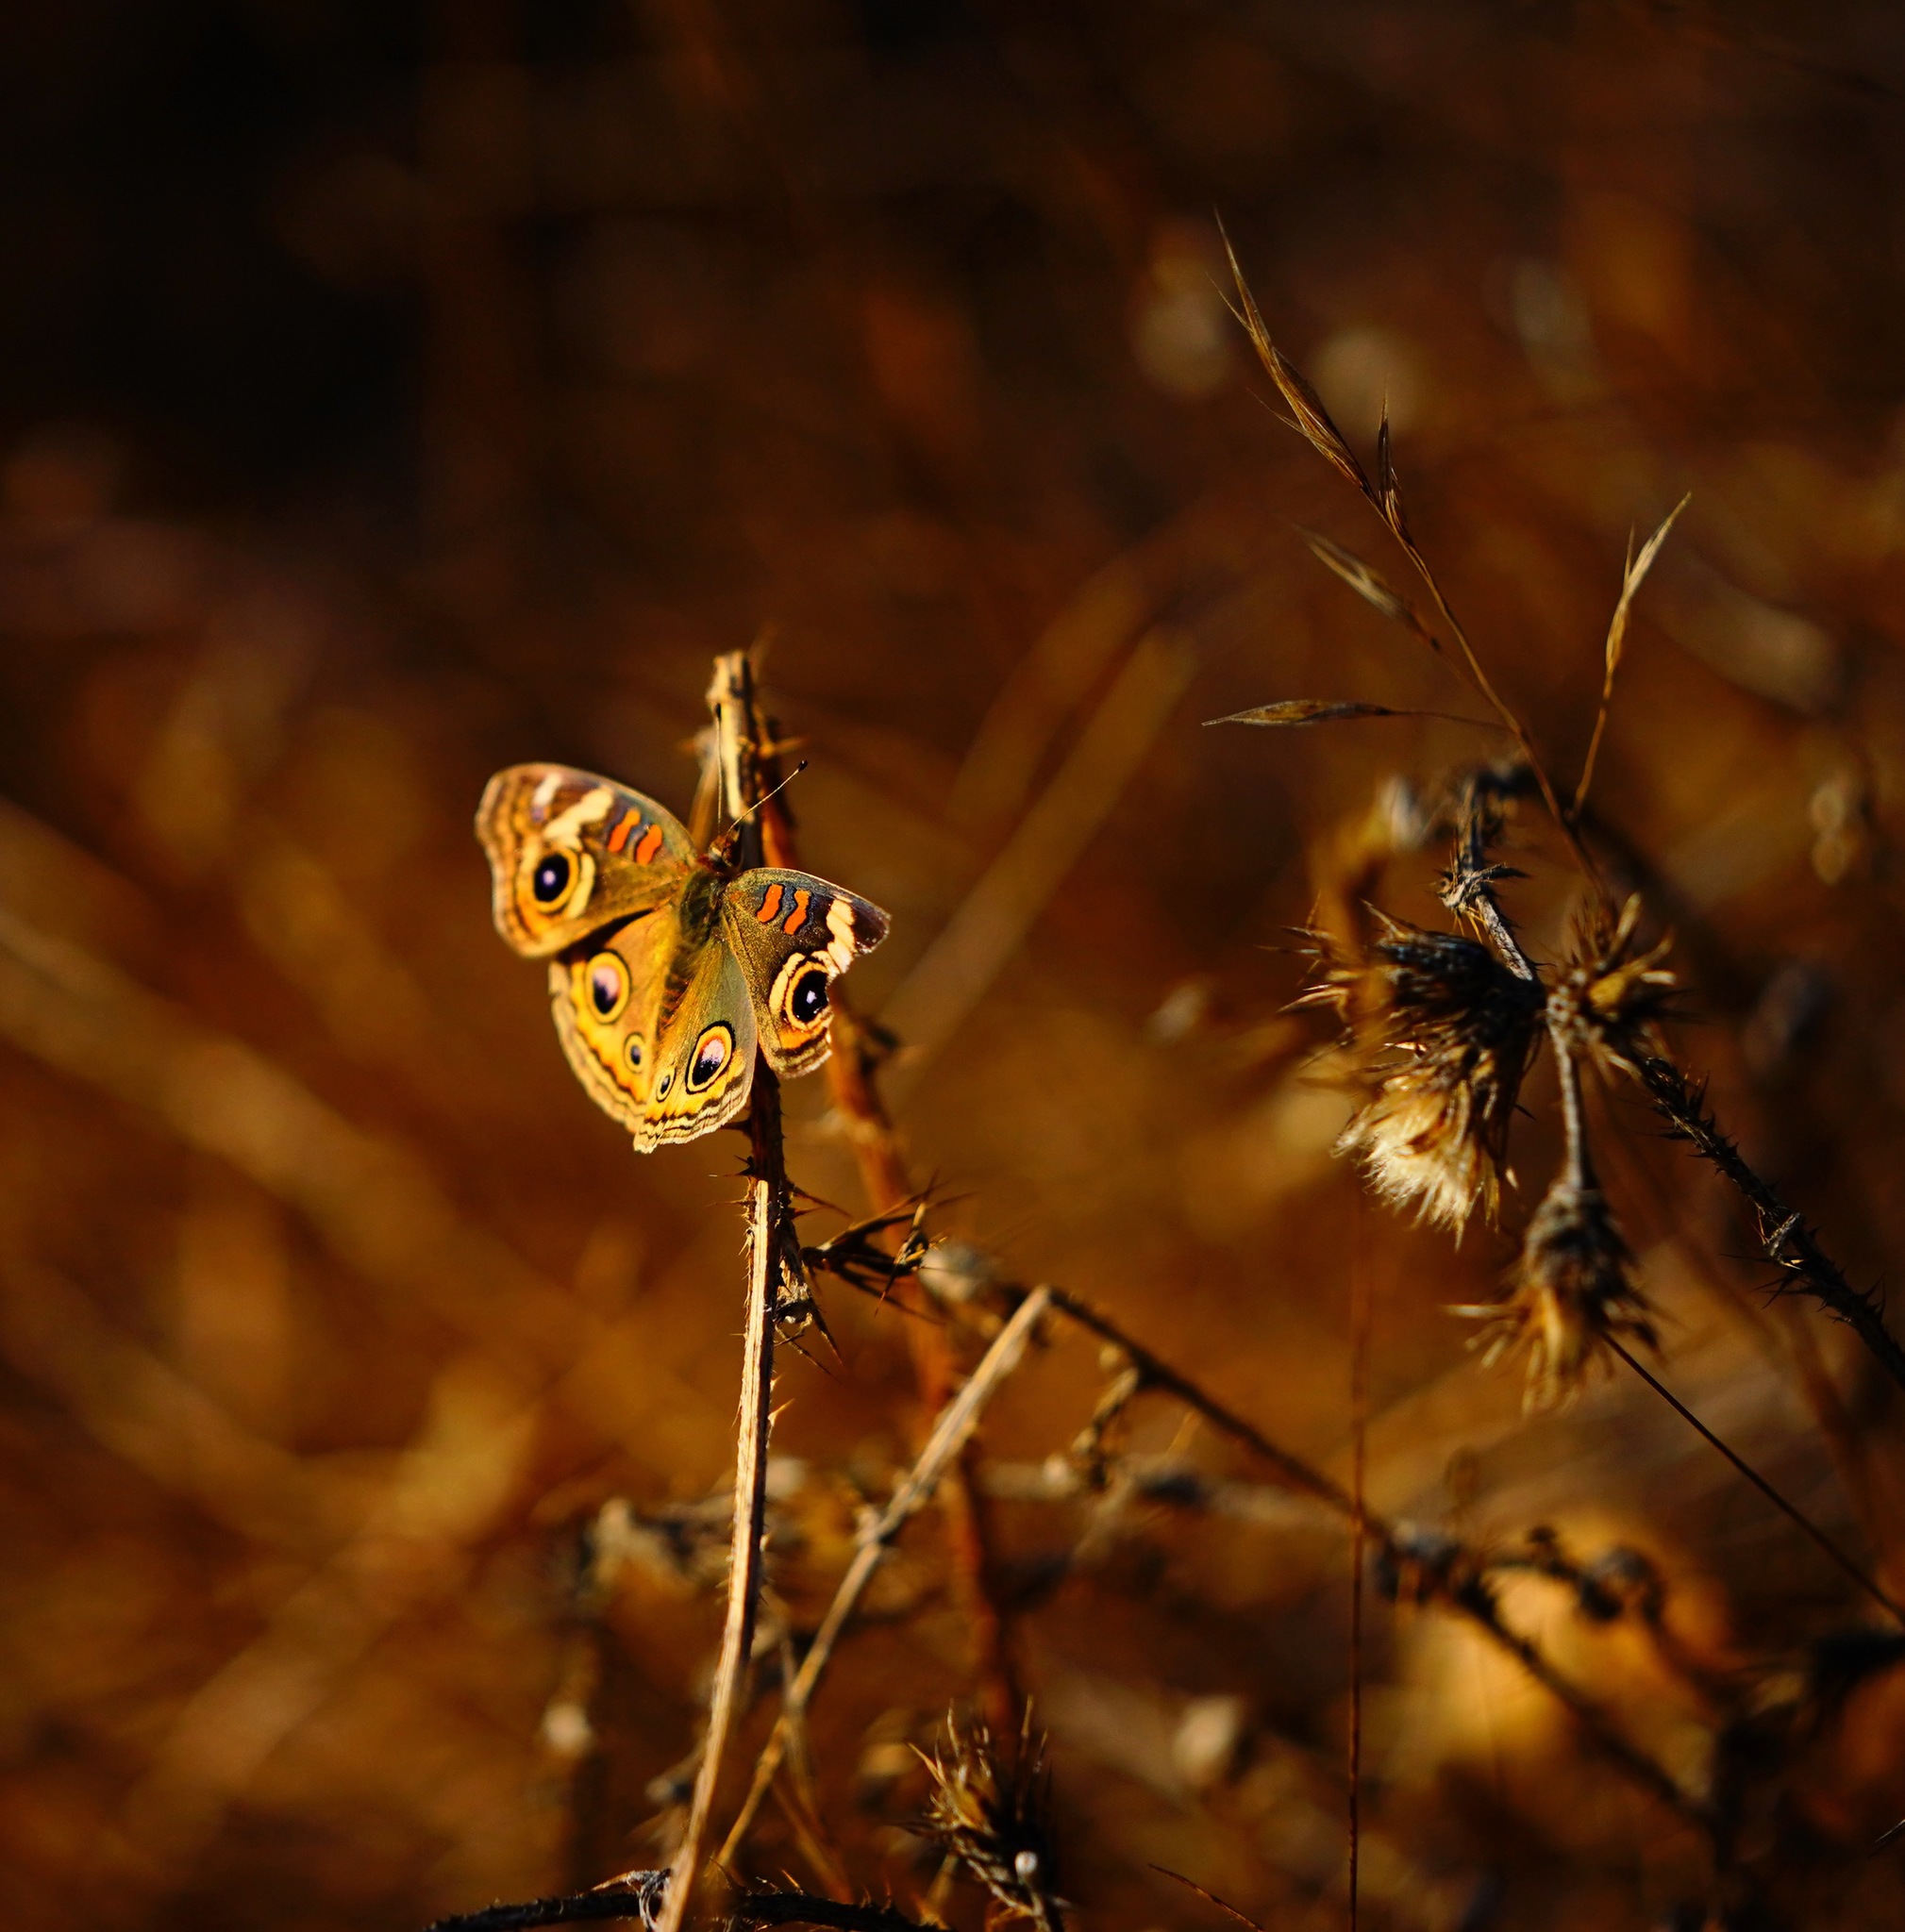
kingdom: Animalia
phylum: Arthropoda
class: Insecta
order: Lepidoptera
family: Nymphalidae
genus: Junonia
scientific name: Junonia grisea
